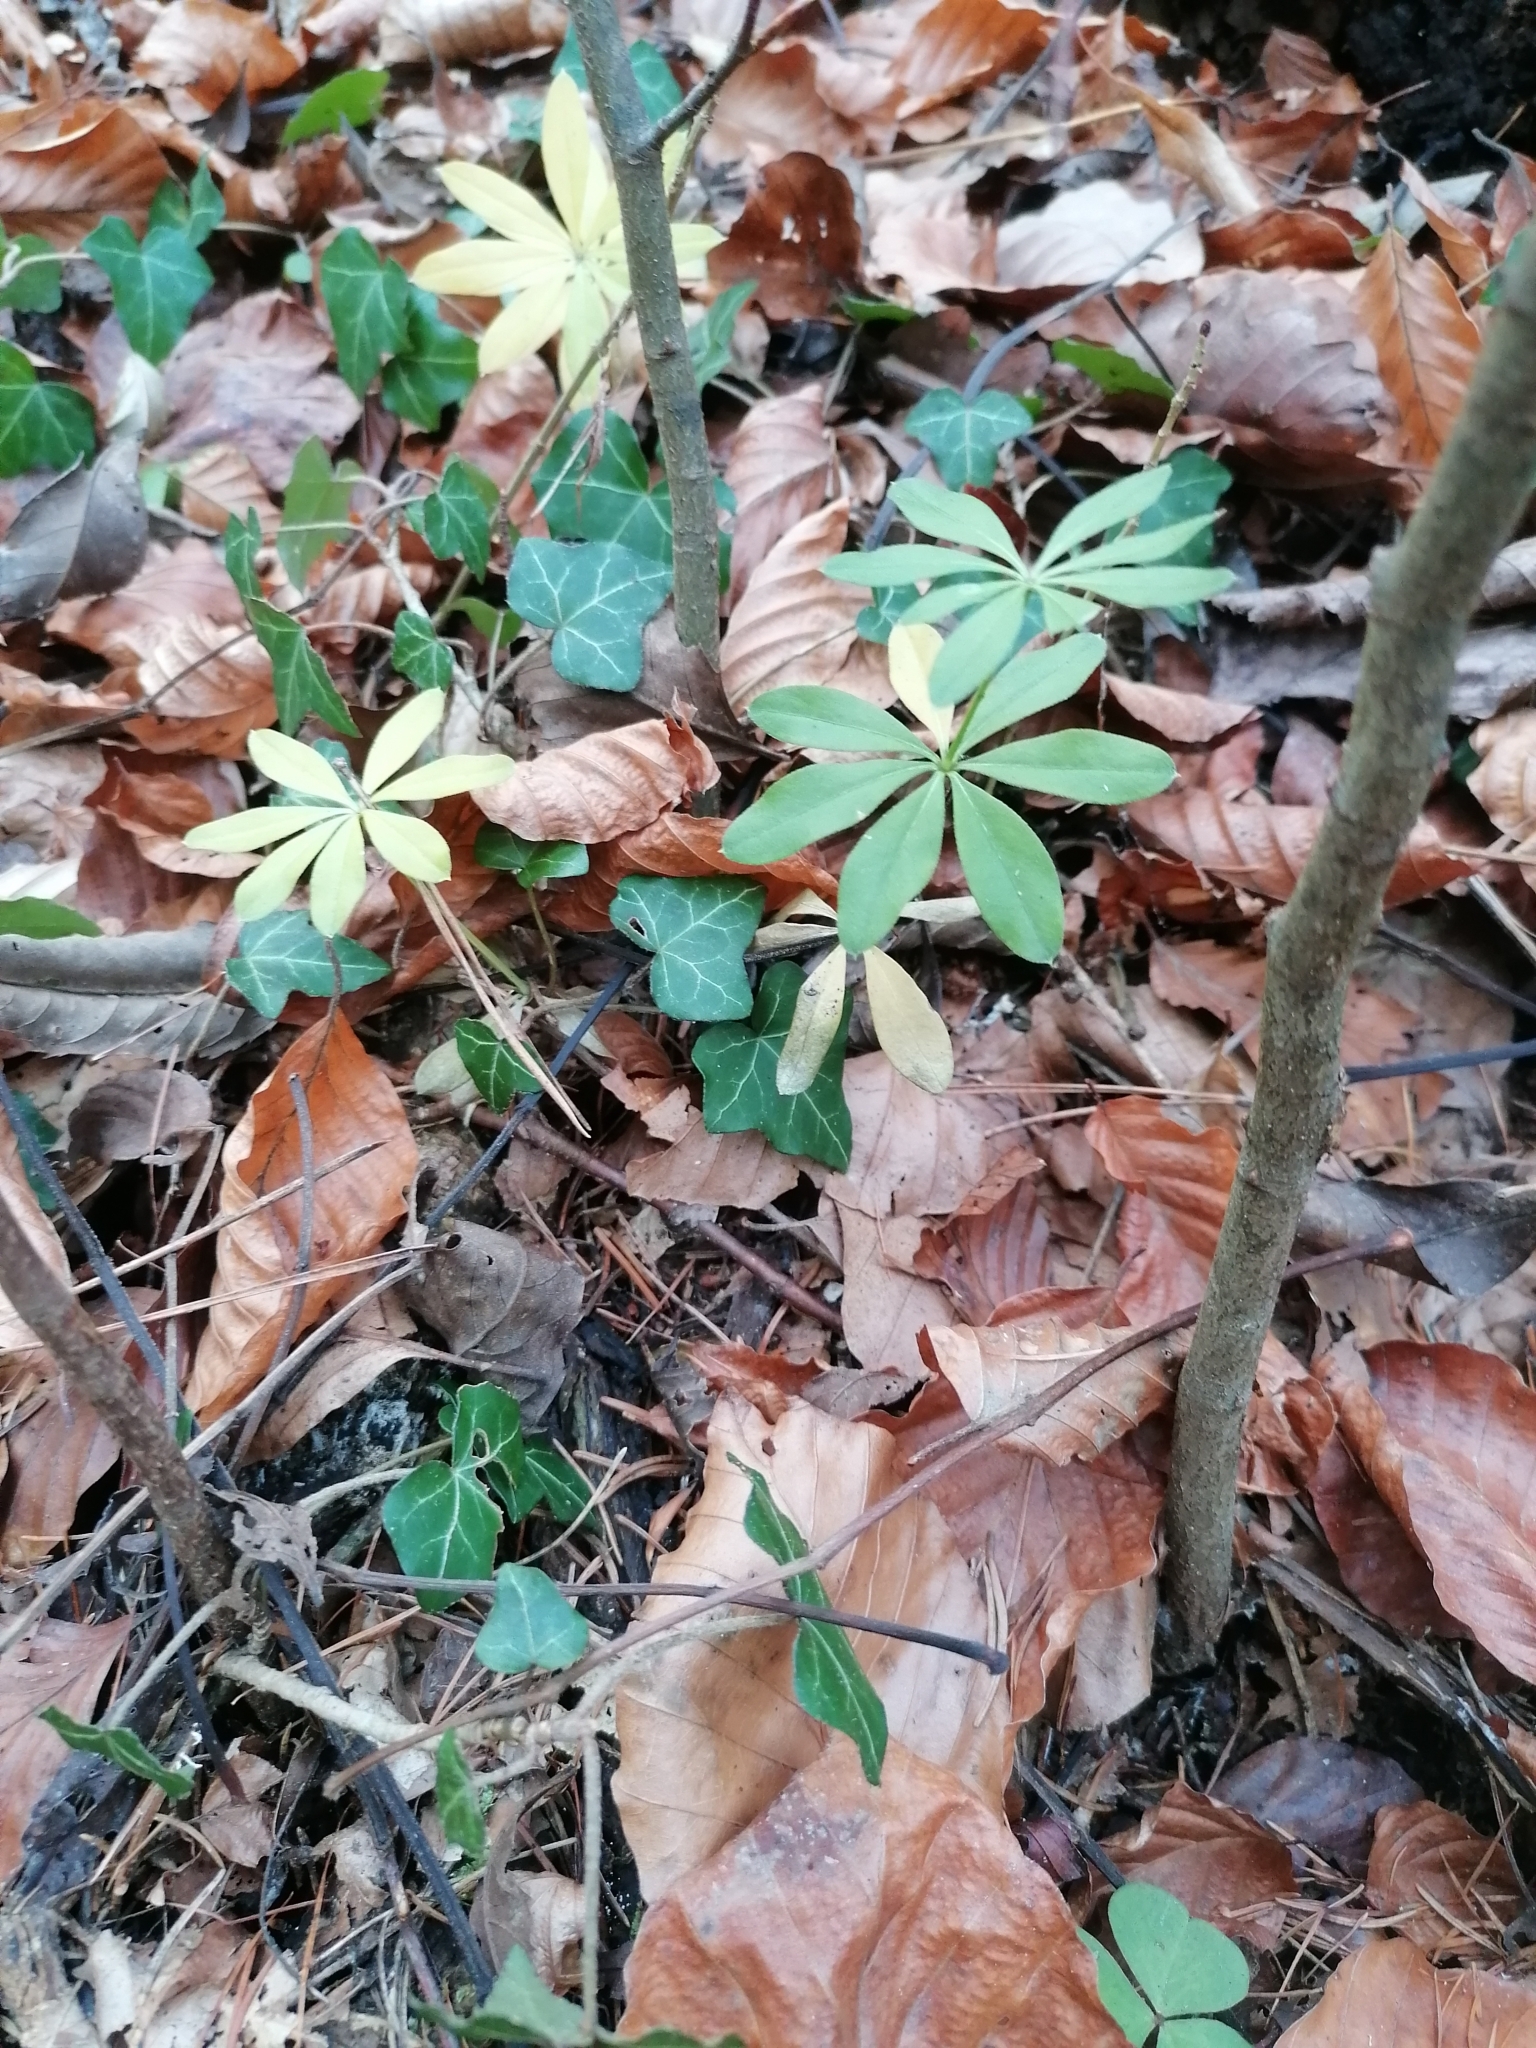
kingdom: Plantae
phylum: Tracheophyta
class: Magnoliopsida
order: Gentianales
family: Rubiaceae
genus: Galium
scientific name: Galium odoratum
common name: Sweet woodruff
